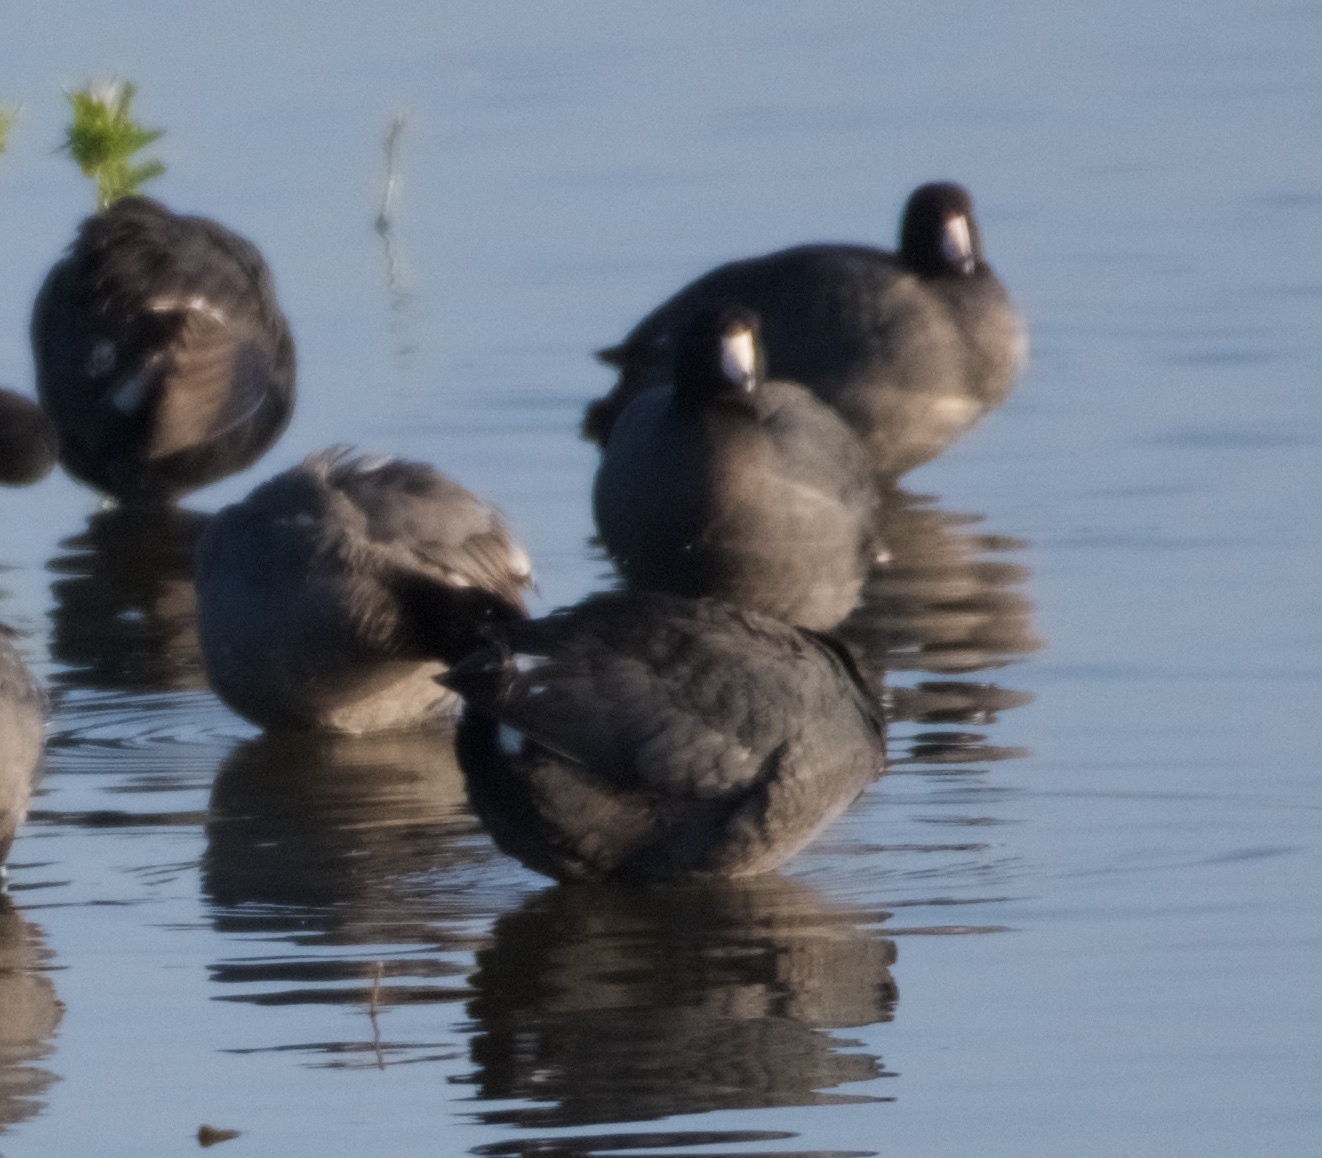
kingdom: Animalia
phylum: Chordata
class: Aves
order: Gruiformes
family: Rallidae
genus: Fulica
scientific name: Fulica americana
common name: American coot
